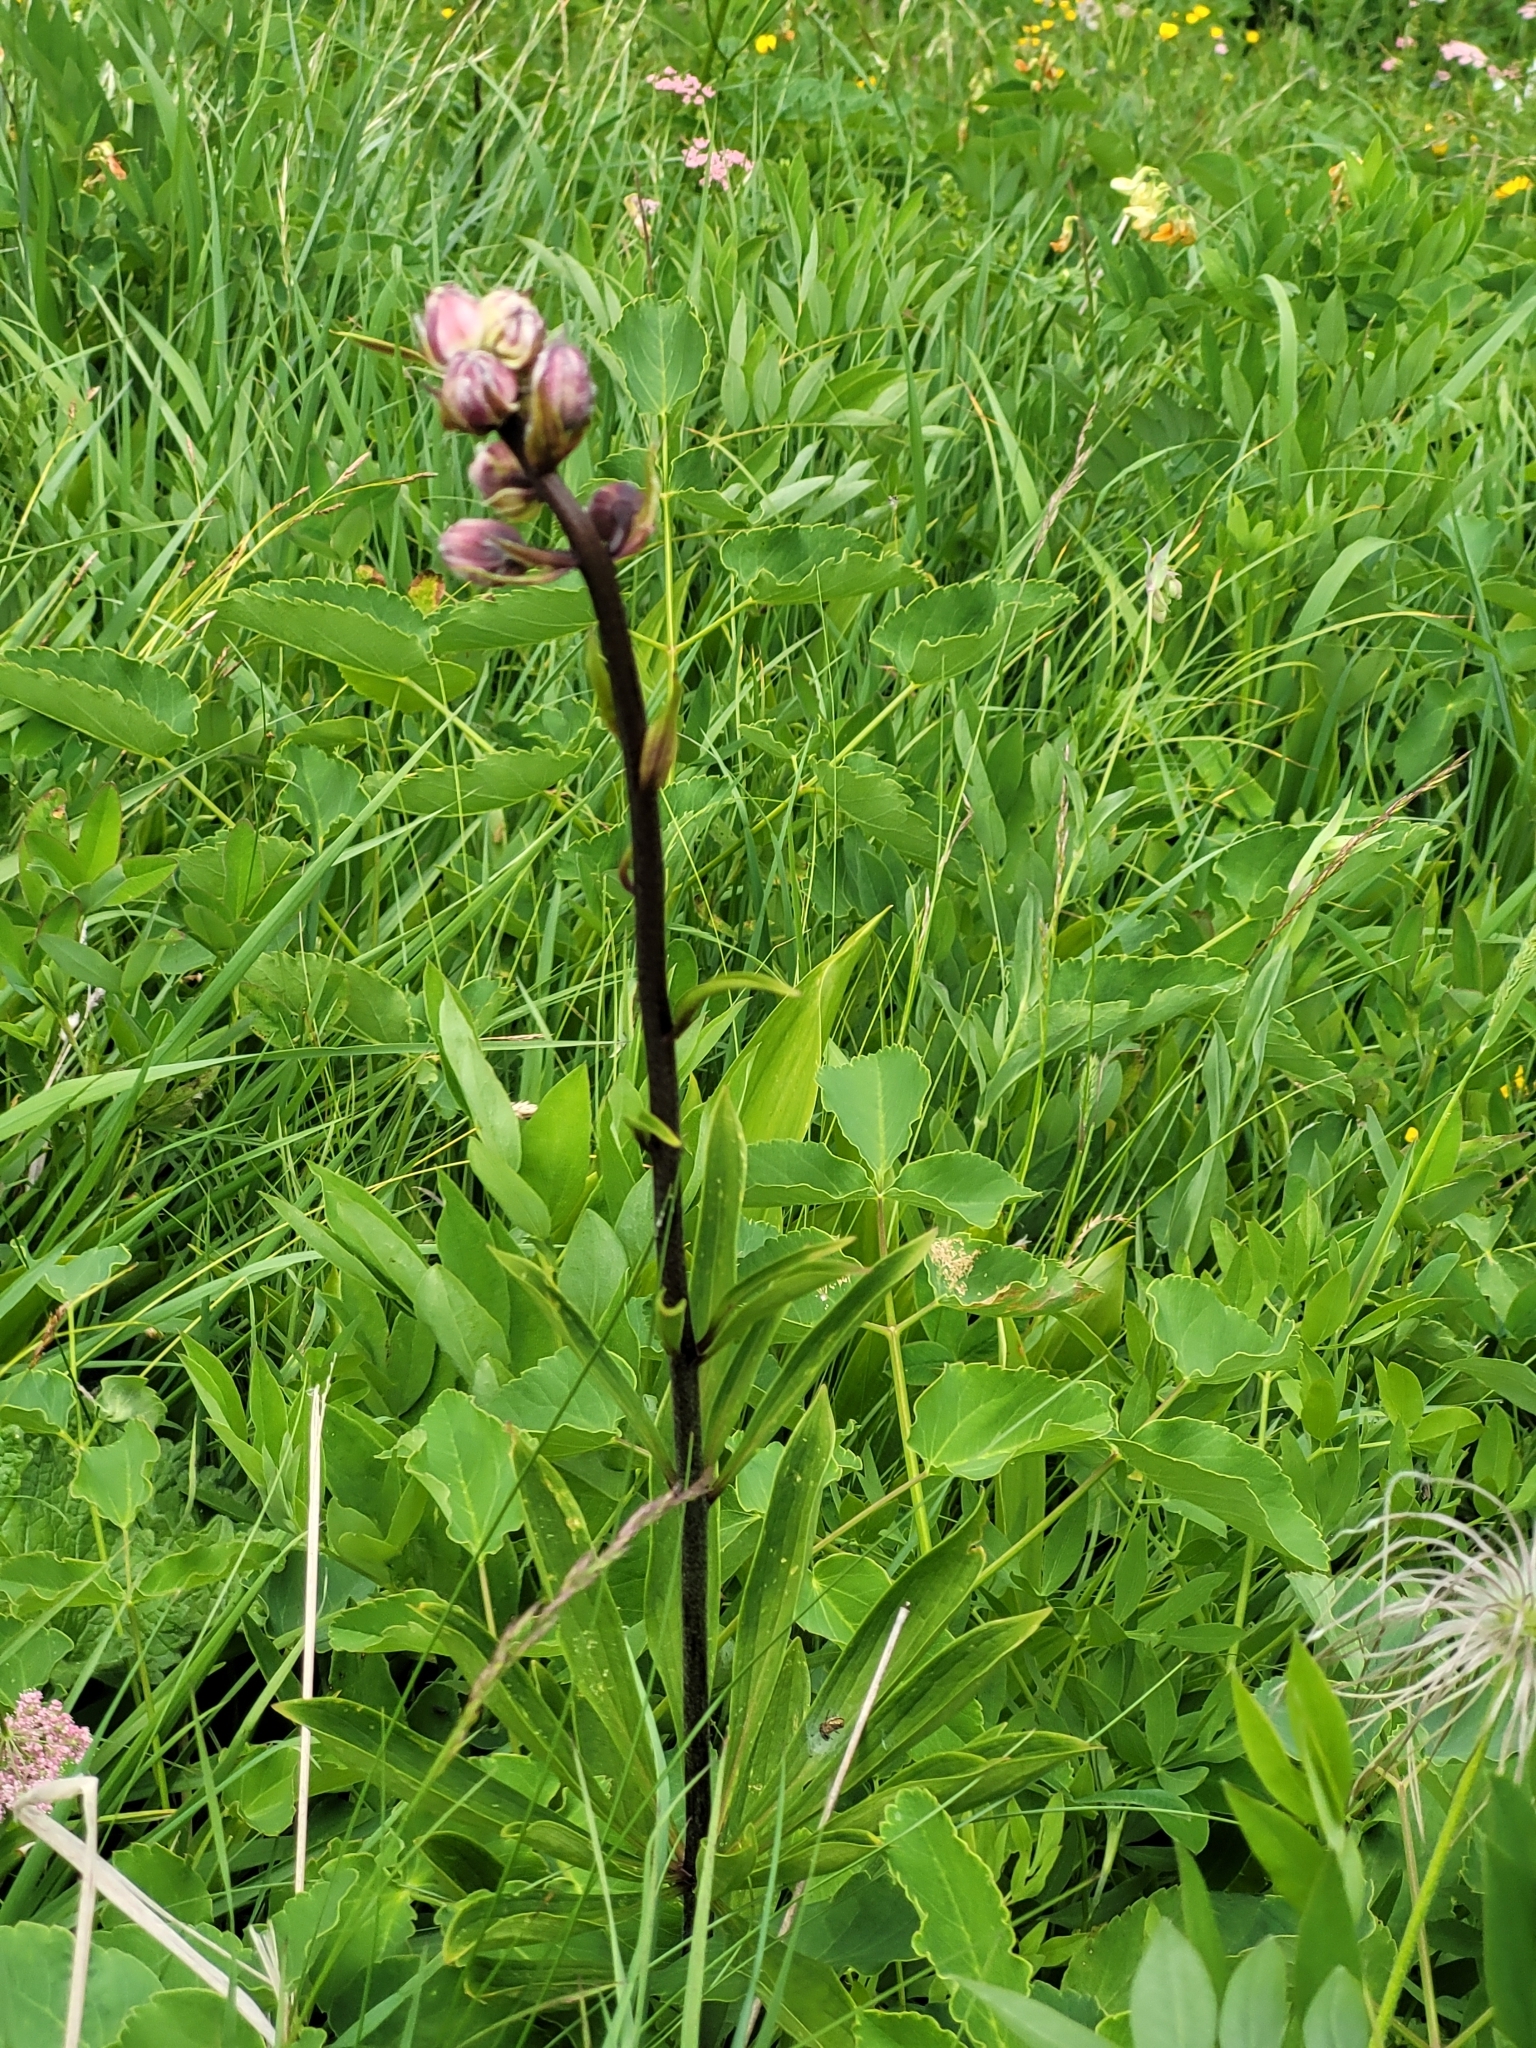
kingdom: Plantae
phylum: Tracheophyta
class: Liliopsida
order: Liliales
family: Liliaceae
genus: Lilium
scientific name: Lilium martagon
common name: Martagon lily
